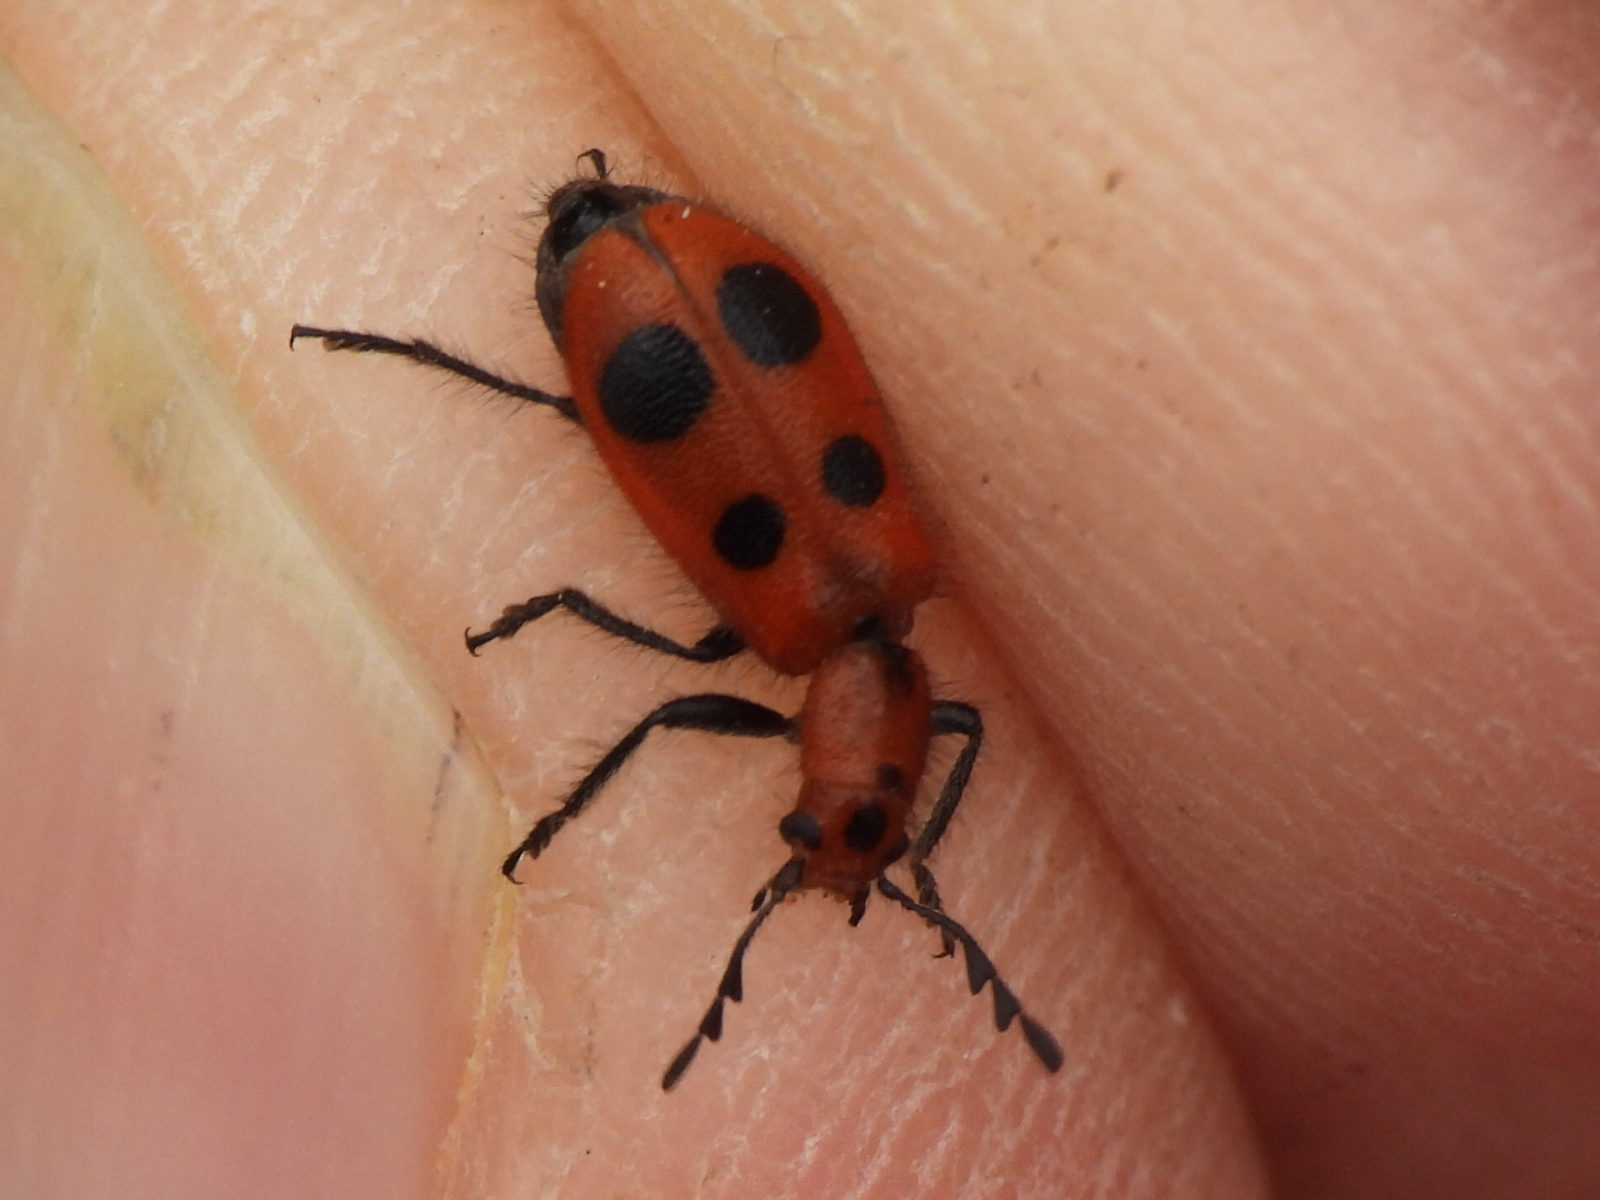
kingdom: Animalia
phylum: Arthropoda
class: Insecta
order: Coleoptera
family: Cleridae
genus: Pelonides
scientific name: Pelonides
